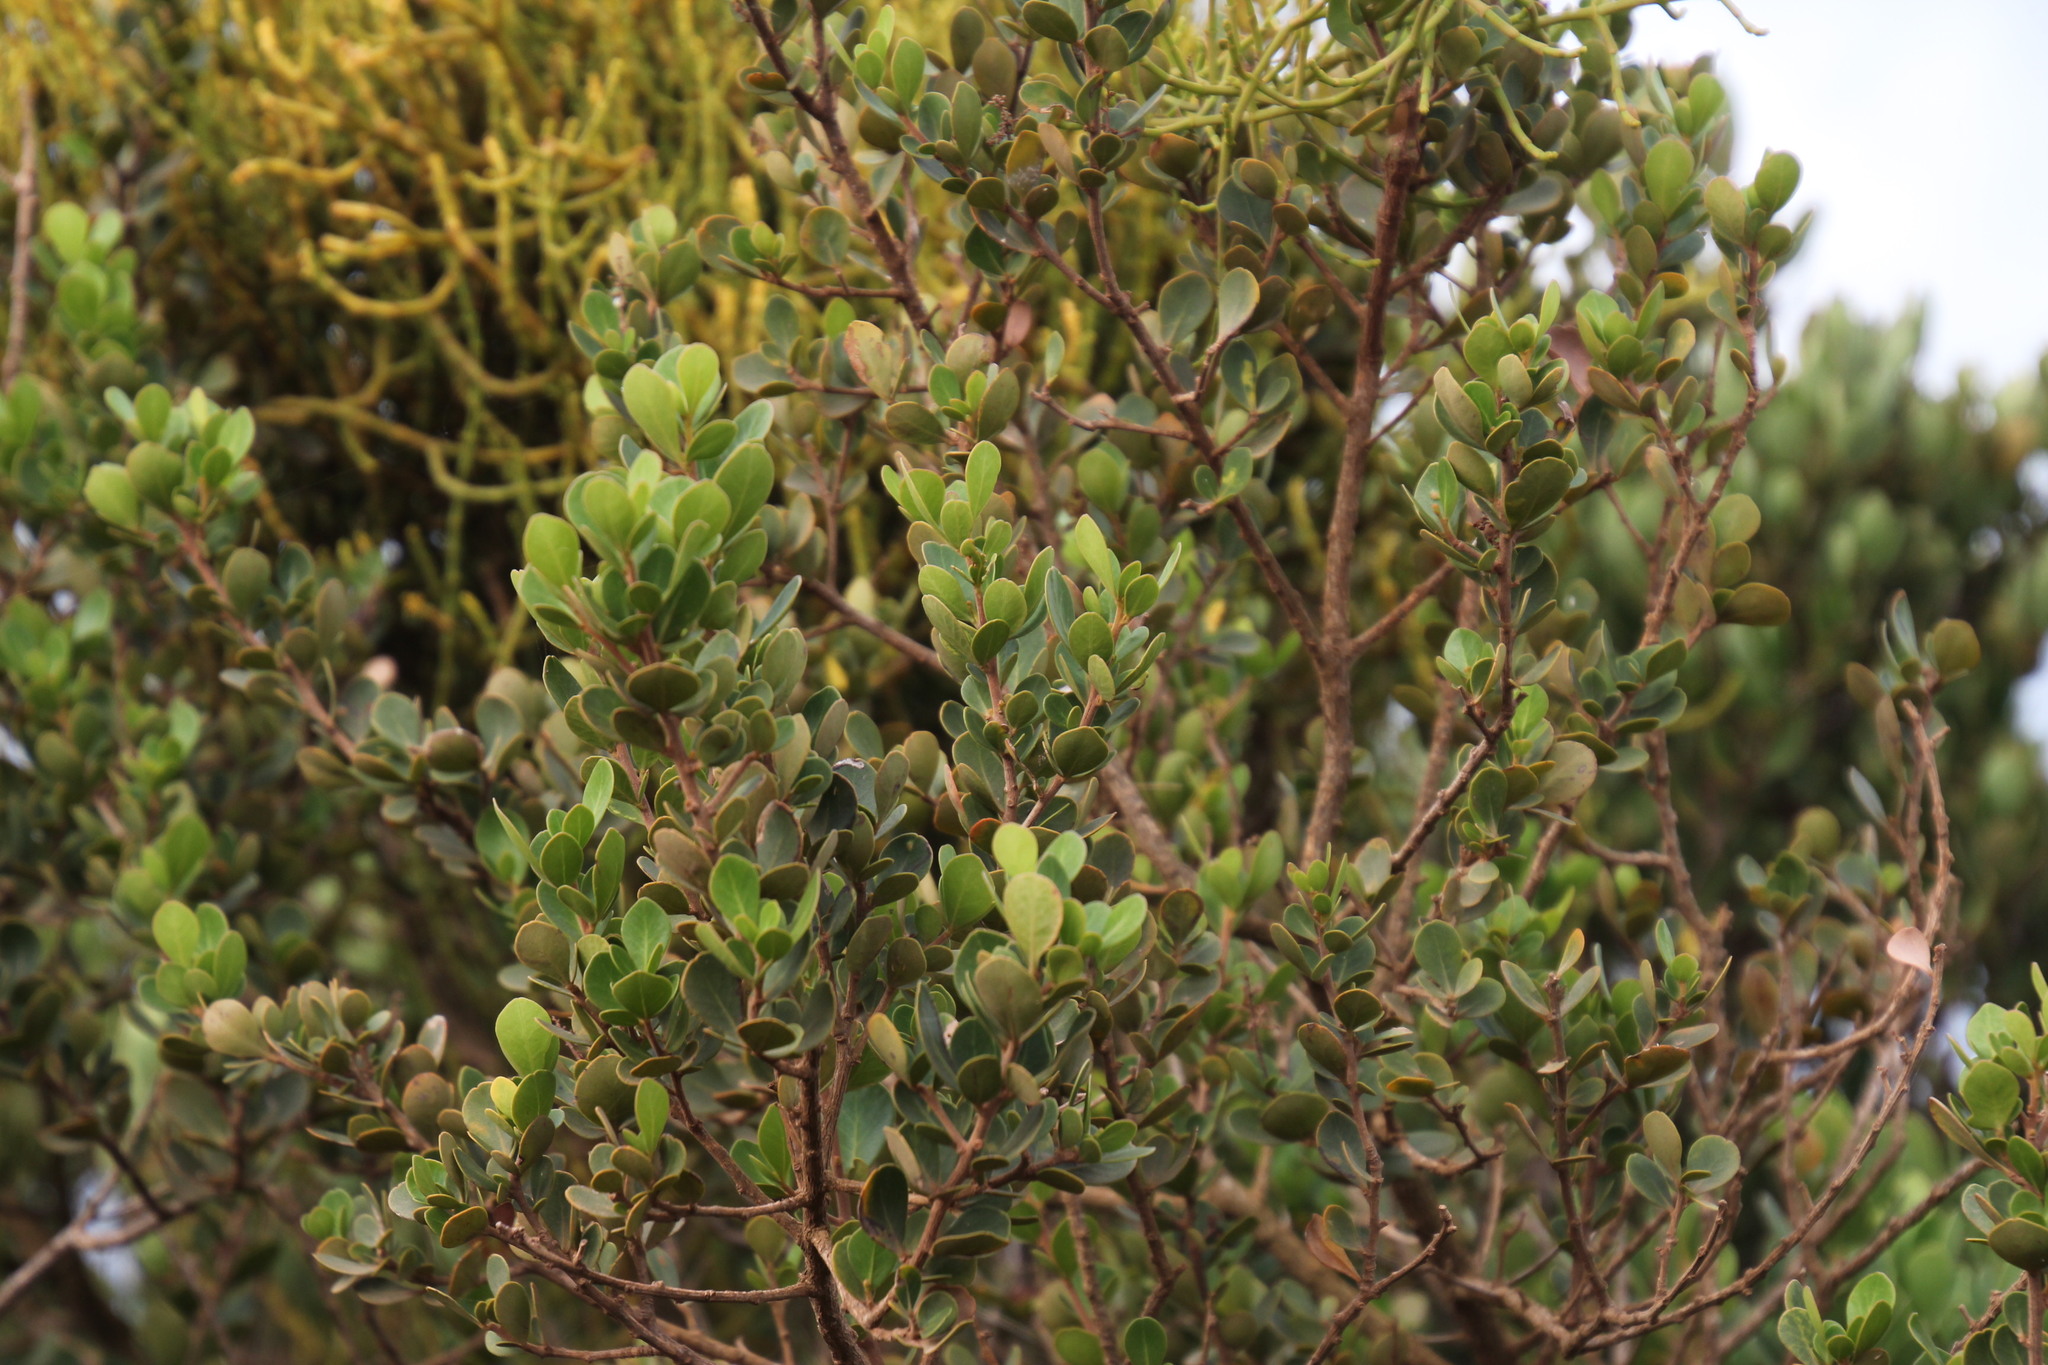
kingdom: Plantae
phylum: Tracheophyta
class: Magnoliopsida
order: Santalales
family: Viscaceae
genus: Viscum
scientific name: Viscum capense
